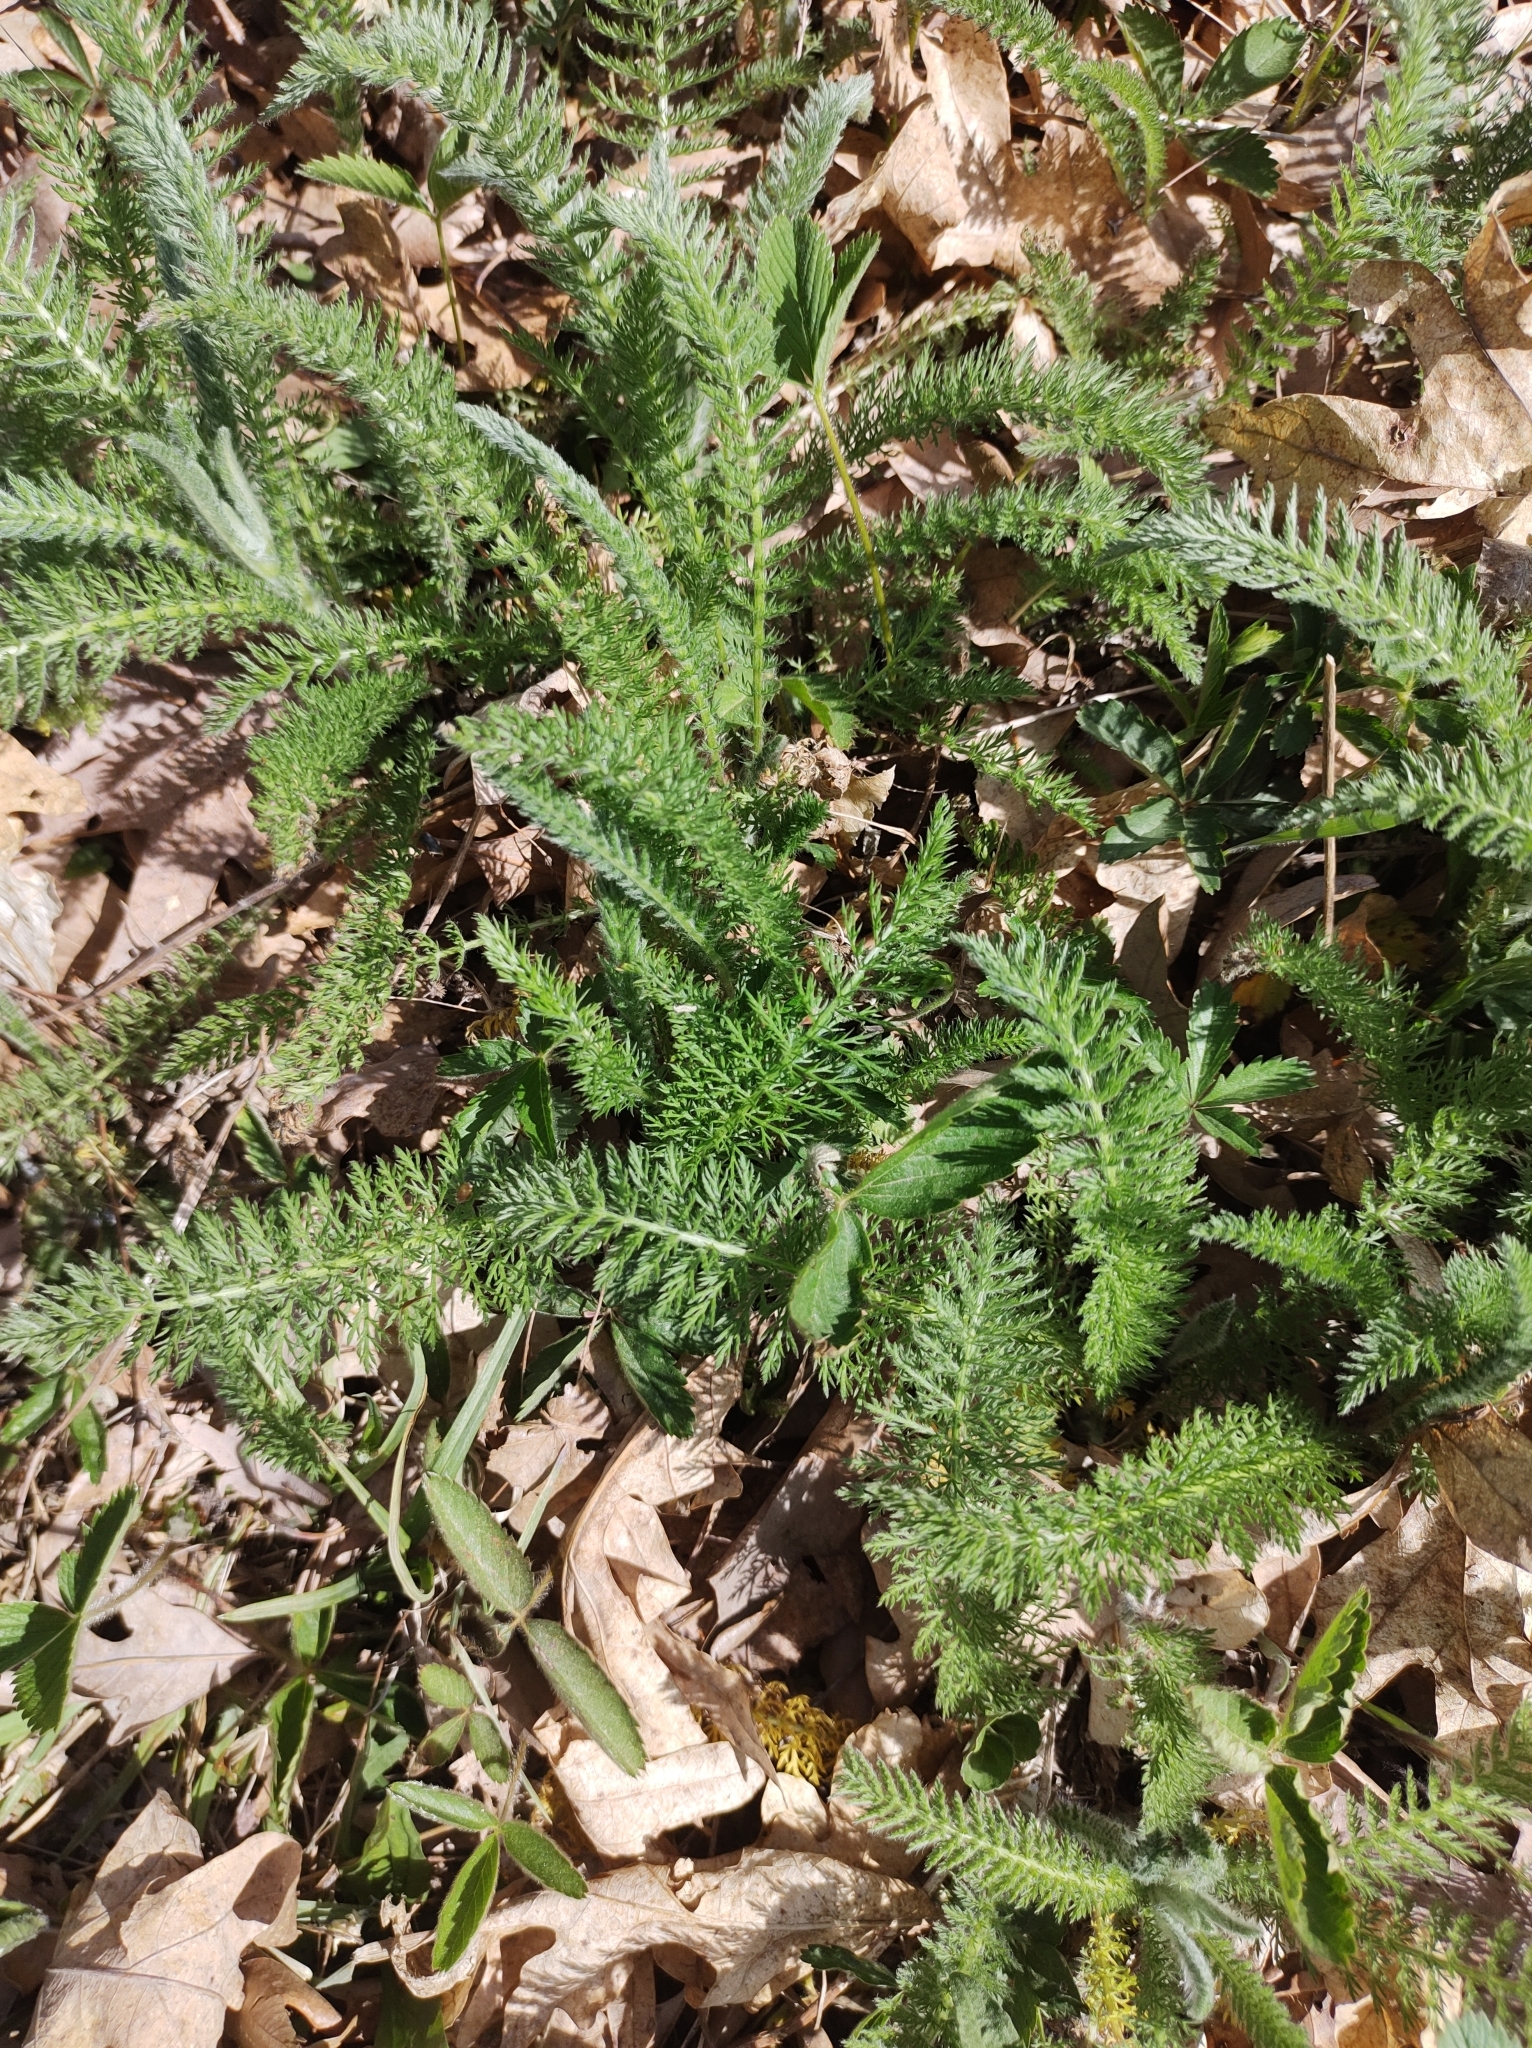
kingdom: Plantae
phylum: Tracheophyta
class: Magnoliopsida
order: Asterales
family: Asteraceae
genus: Achillea
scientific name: Achillea millefolium
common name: Yarrow
